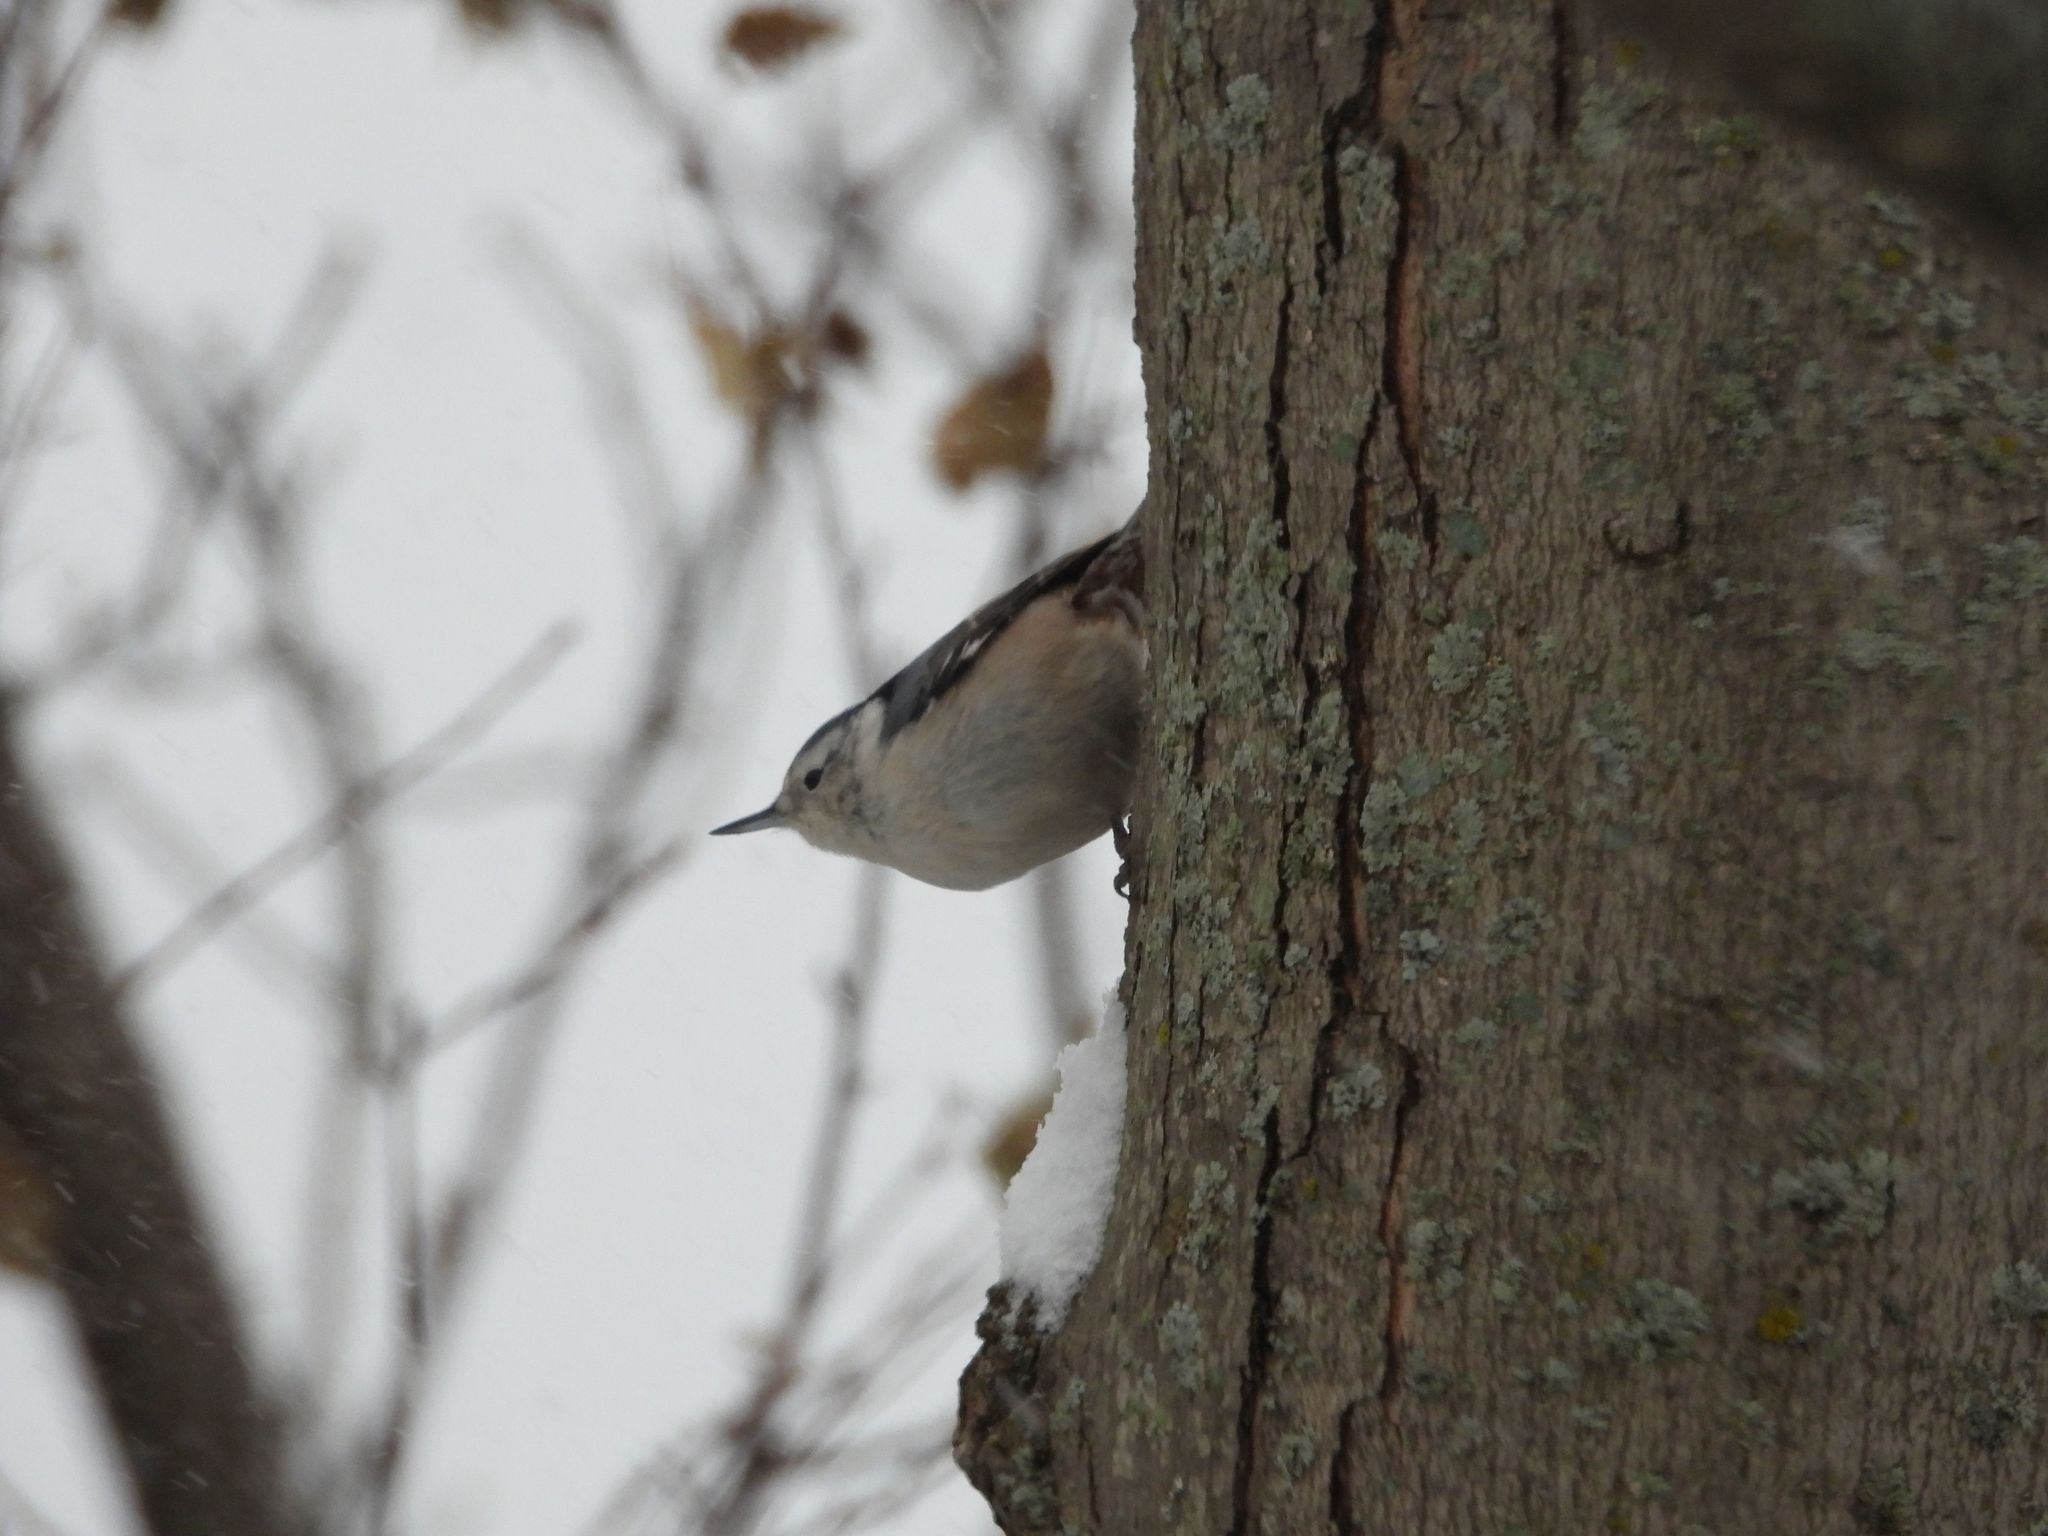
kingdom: Animalia
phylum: Chordata
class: Aves
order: Passeriformes
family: Sittidae
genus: Sitta
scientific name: Sitta carolinensis
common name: White-breasted nuthatch
